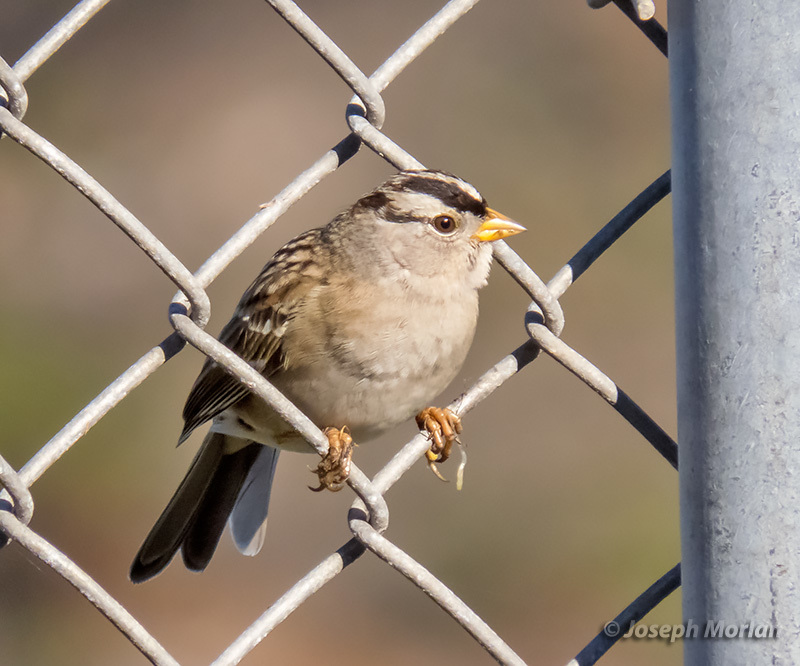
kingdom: Animalia
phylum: Chordata
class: Aves
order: Passeriformes
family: Passerellidae
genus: Zonotrichia
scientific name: Zonotrichia leucophrys
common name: White-crowned sparrow
